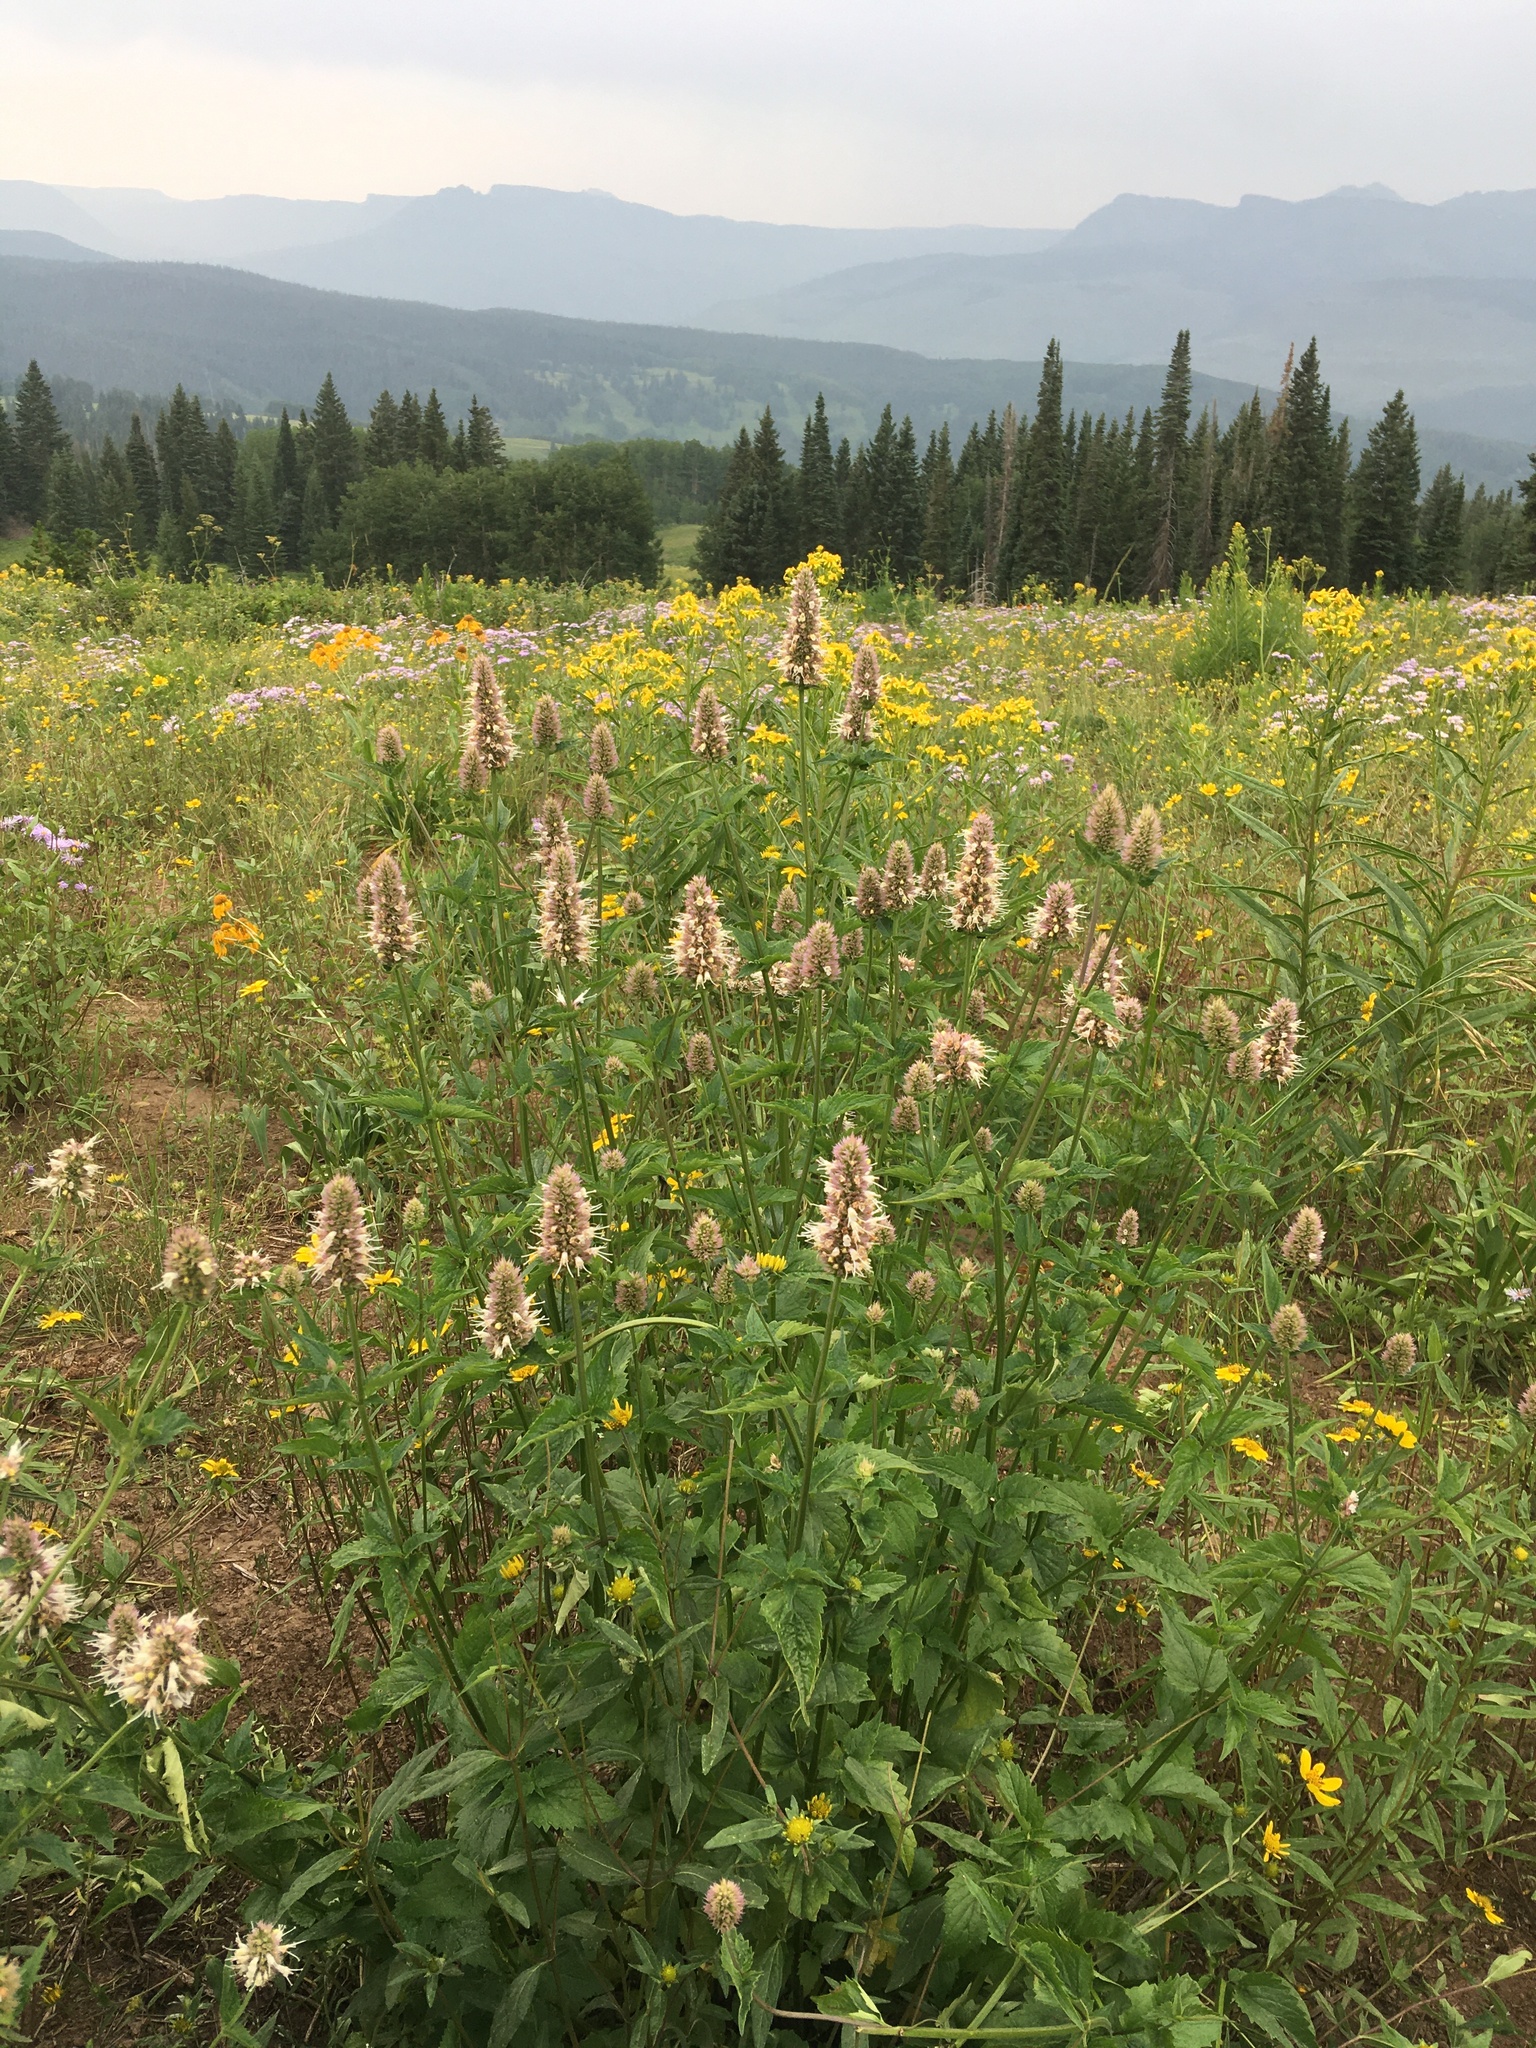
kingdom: Plantae
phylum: Tracheophyta
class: Magnoliopsida
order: Lamiales
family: Lamiaceae
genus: Agastache
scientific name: Agastache urticifolia
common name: Horsemint giant hyssop
